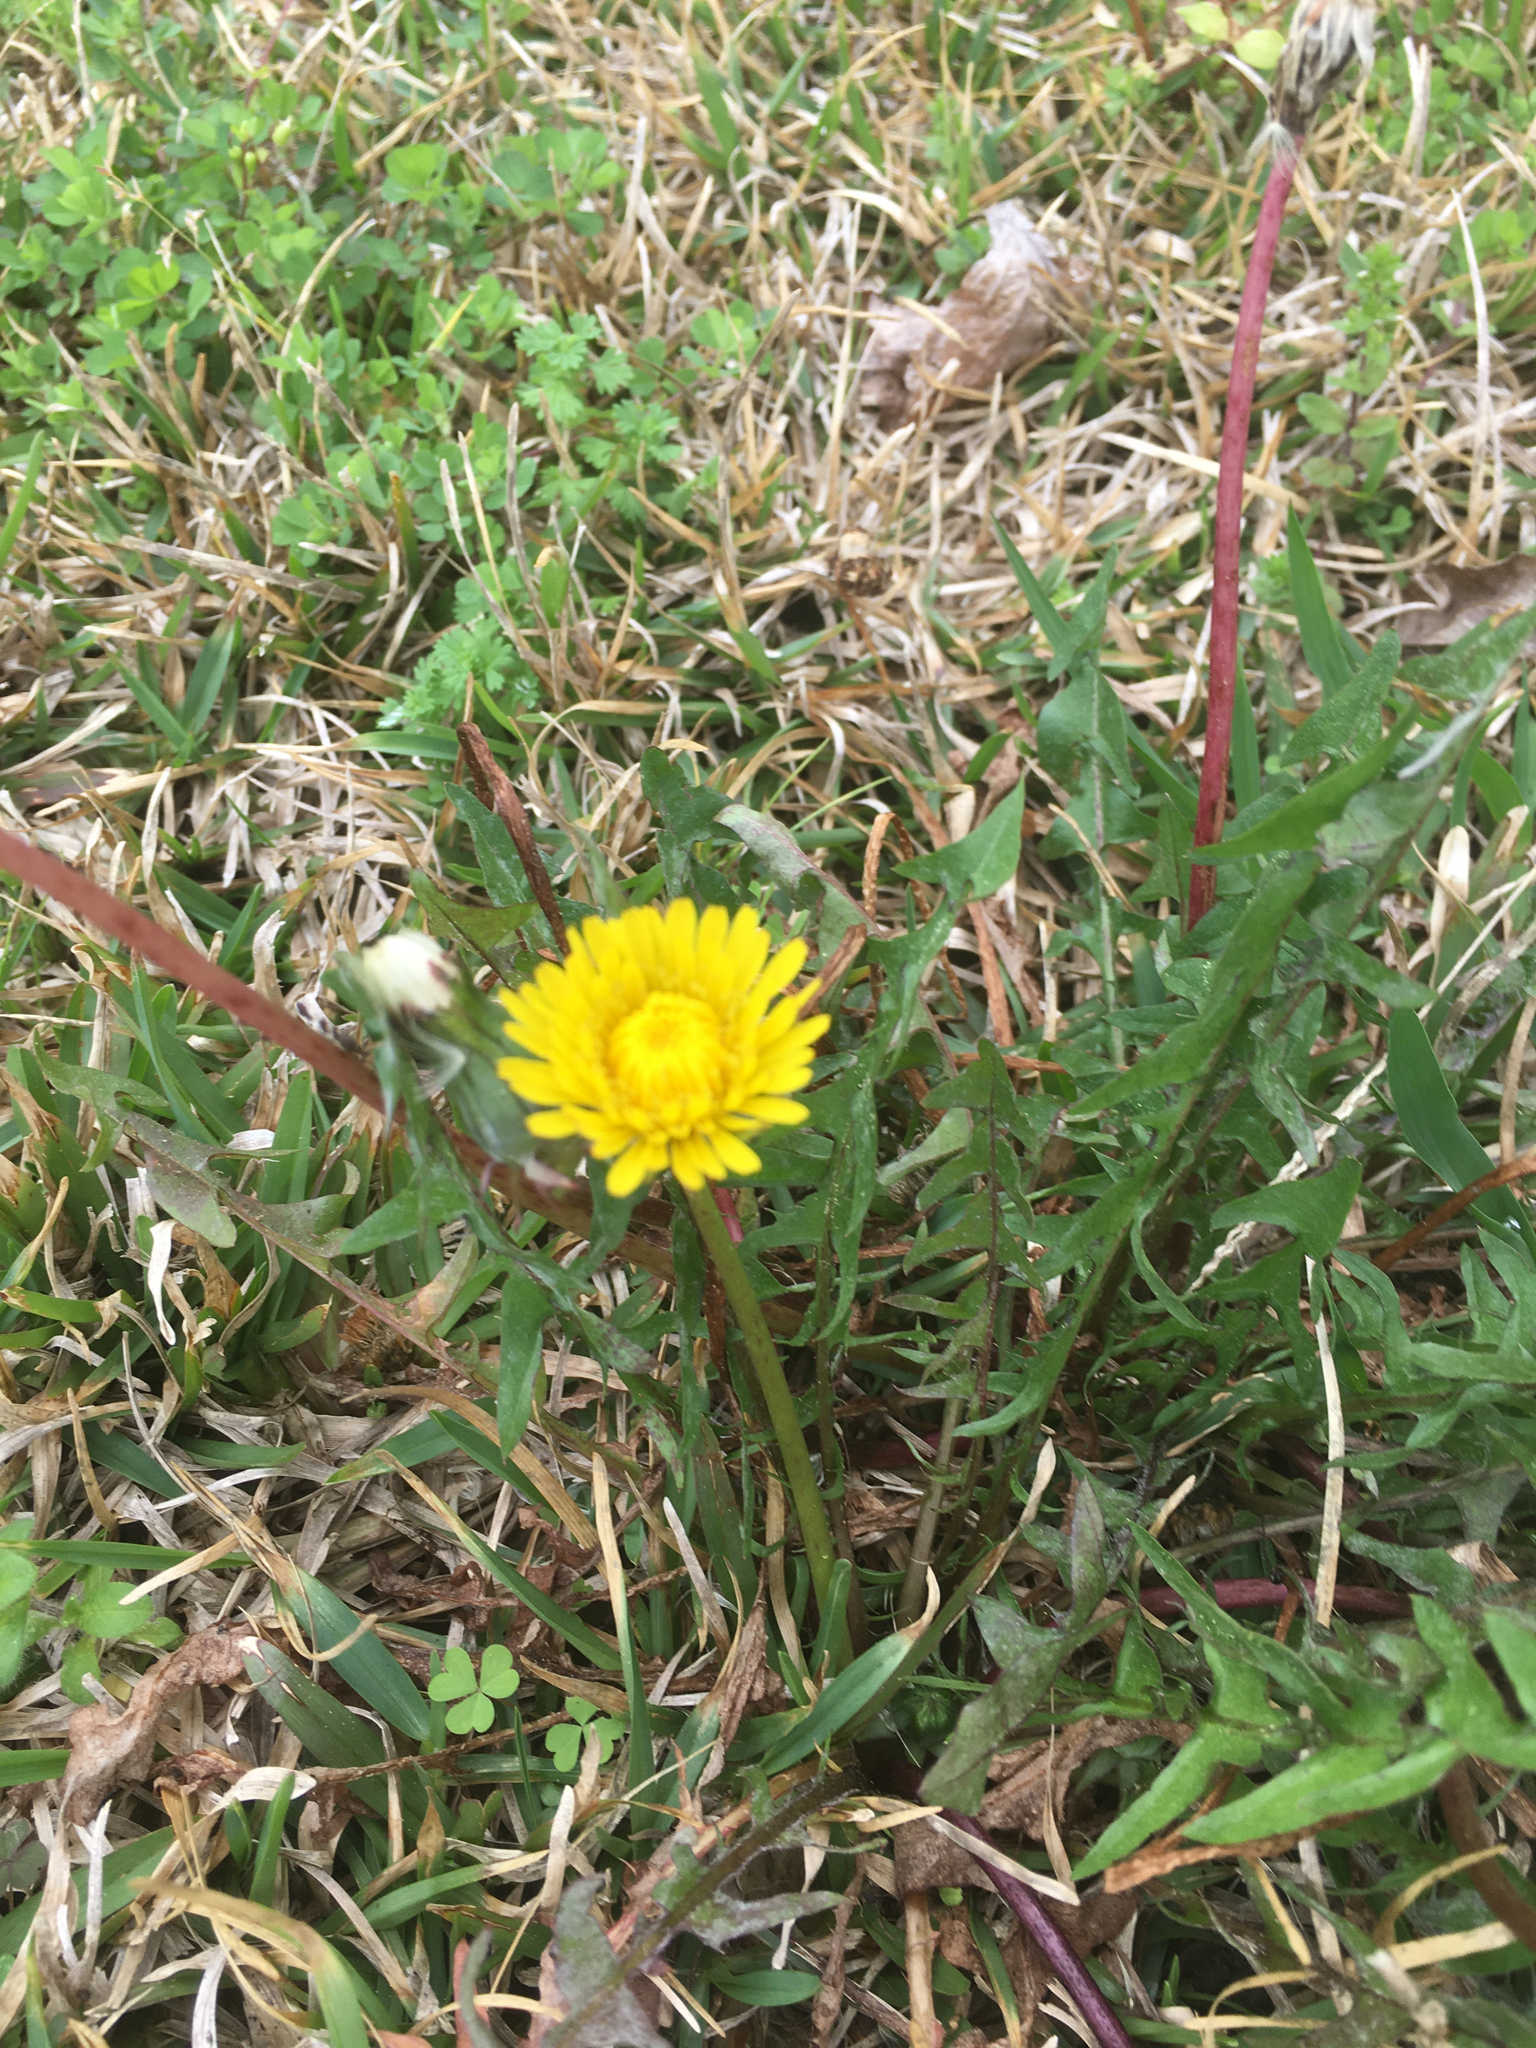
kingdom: Plantae
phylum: Tracheophyta
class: Magnoliopsida
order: Asterales
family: Asteraceae
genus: Taraxacum
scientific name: Taraxacum erythrospermum
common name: Rock dandelion
